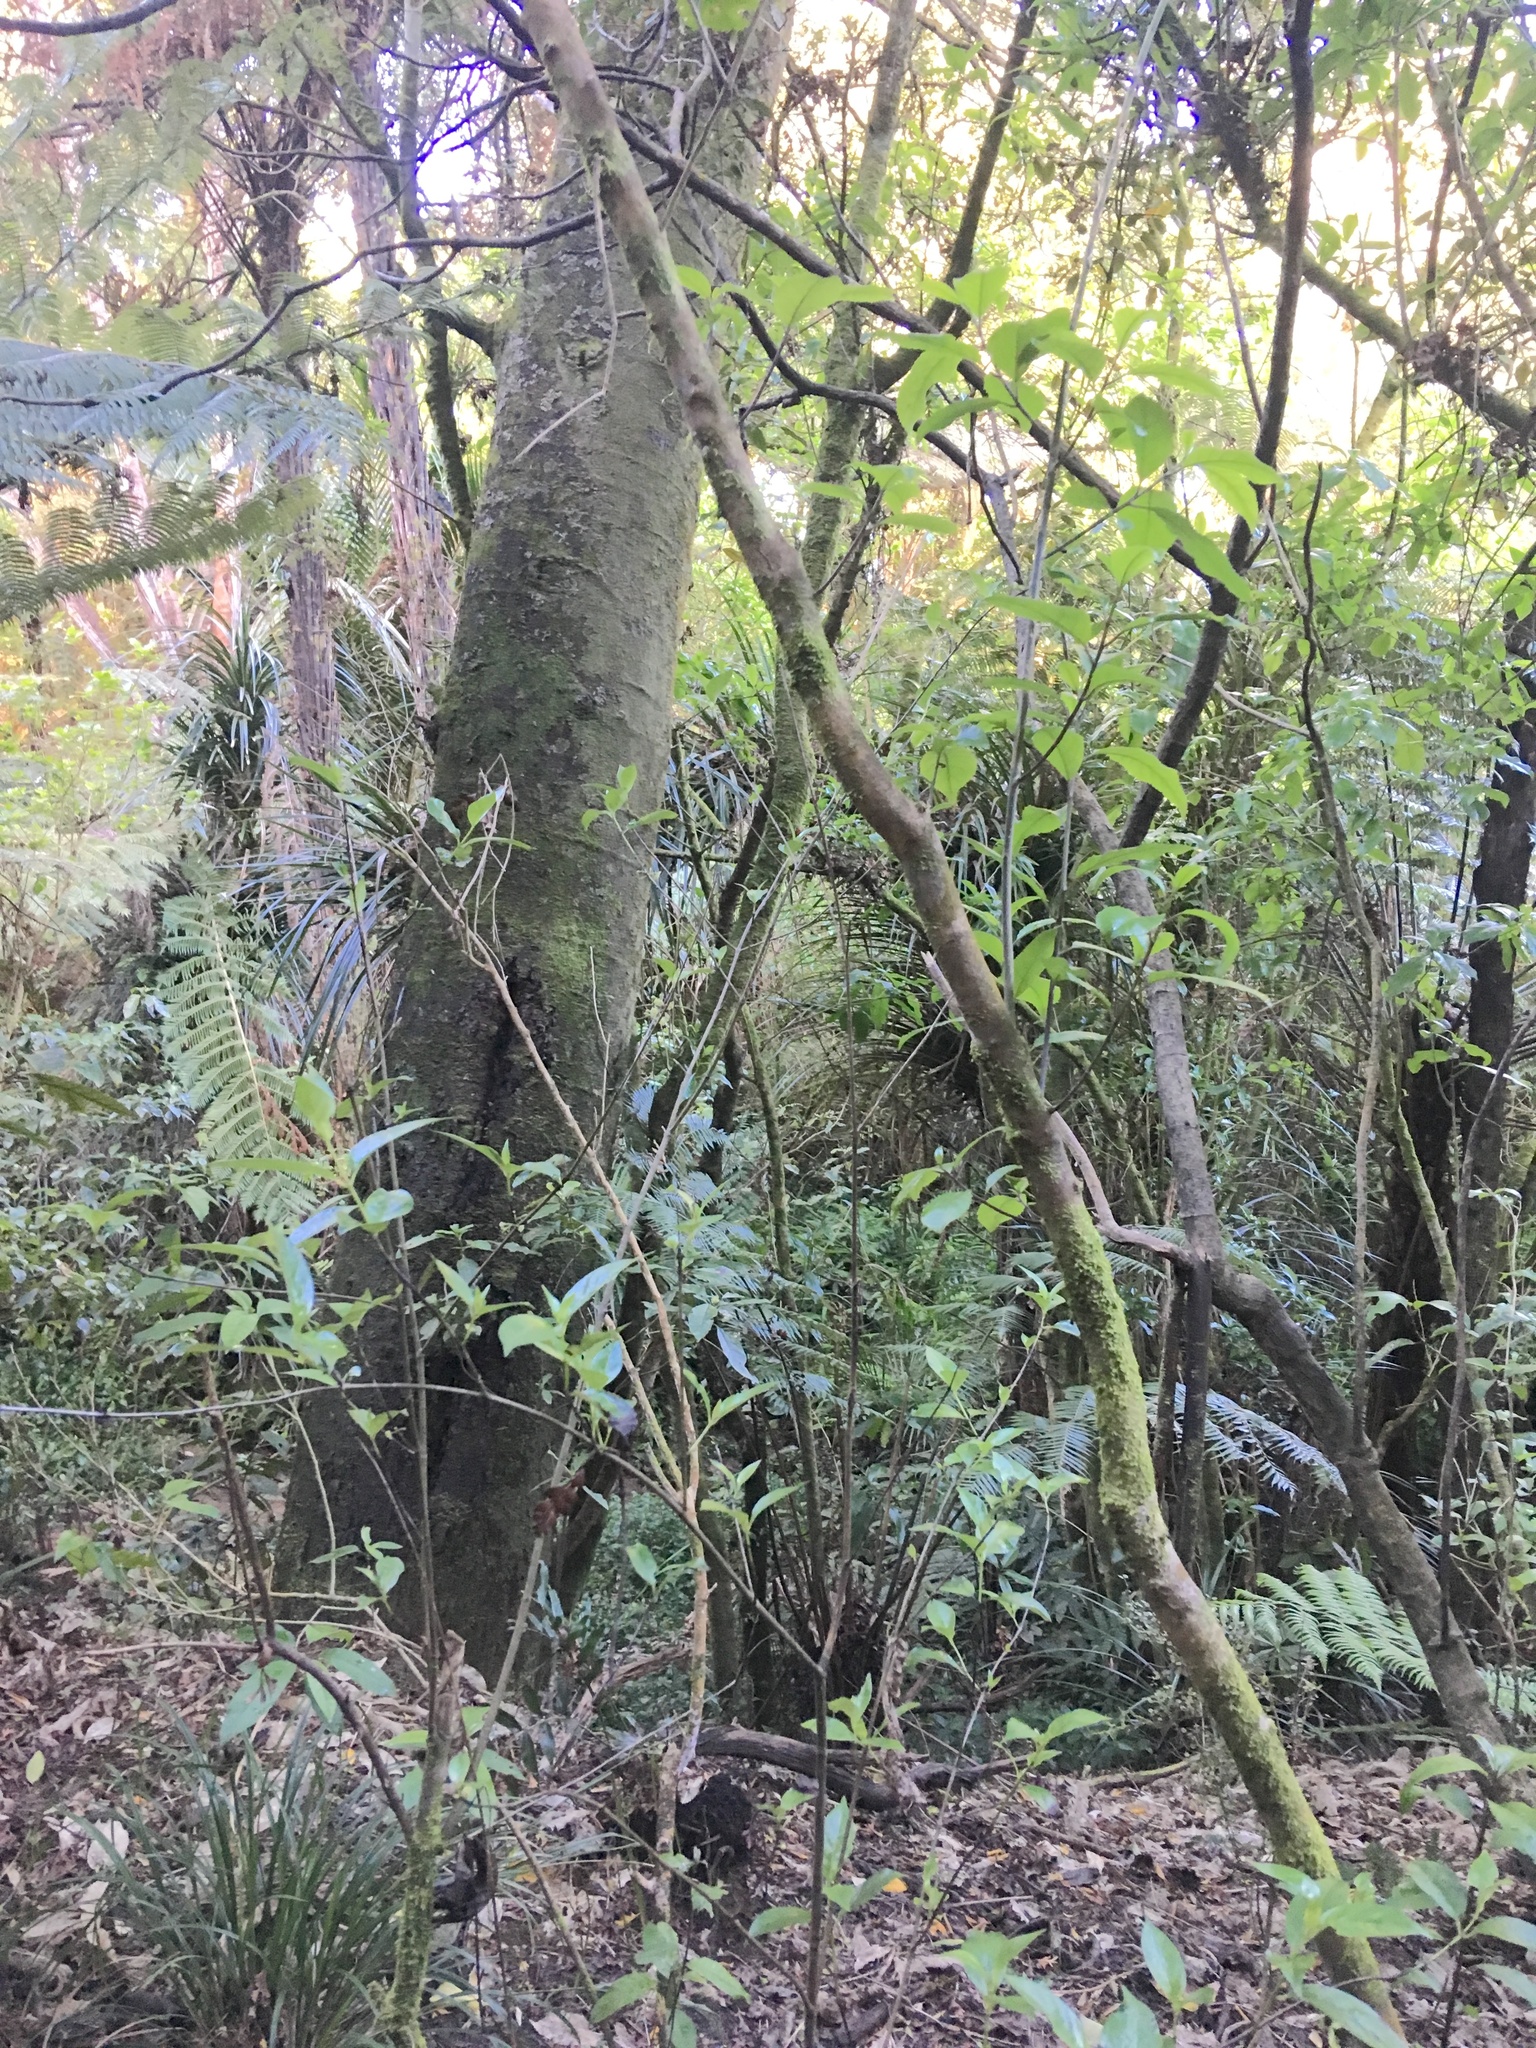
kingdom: Plantae
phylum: Tracheophyta
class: Pinopsida
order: Pinales
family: Phyllocladaceae
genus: Phyllocladus
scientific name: Phyllocladus trichomanoides
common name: Celery pine
